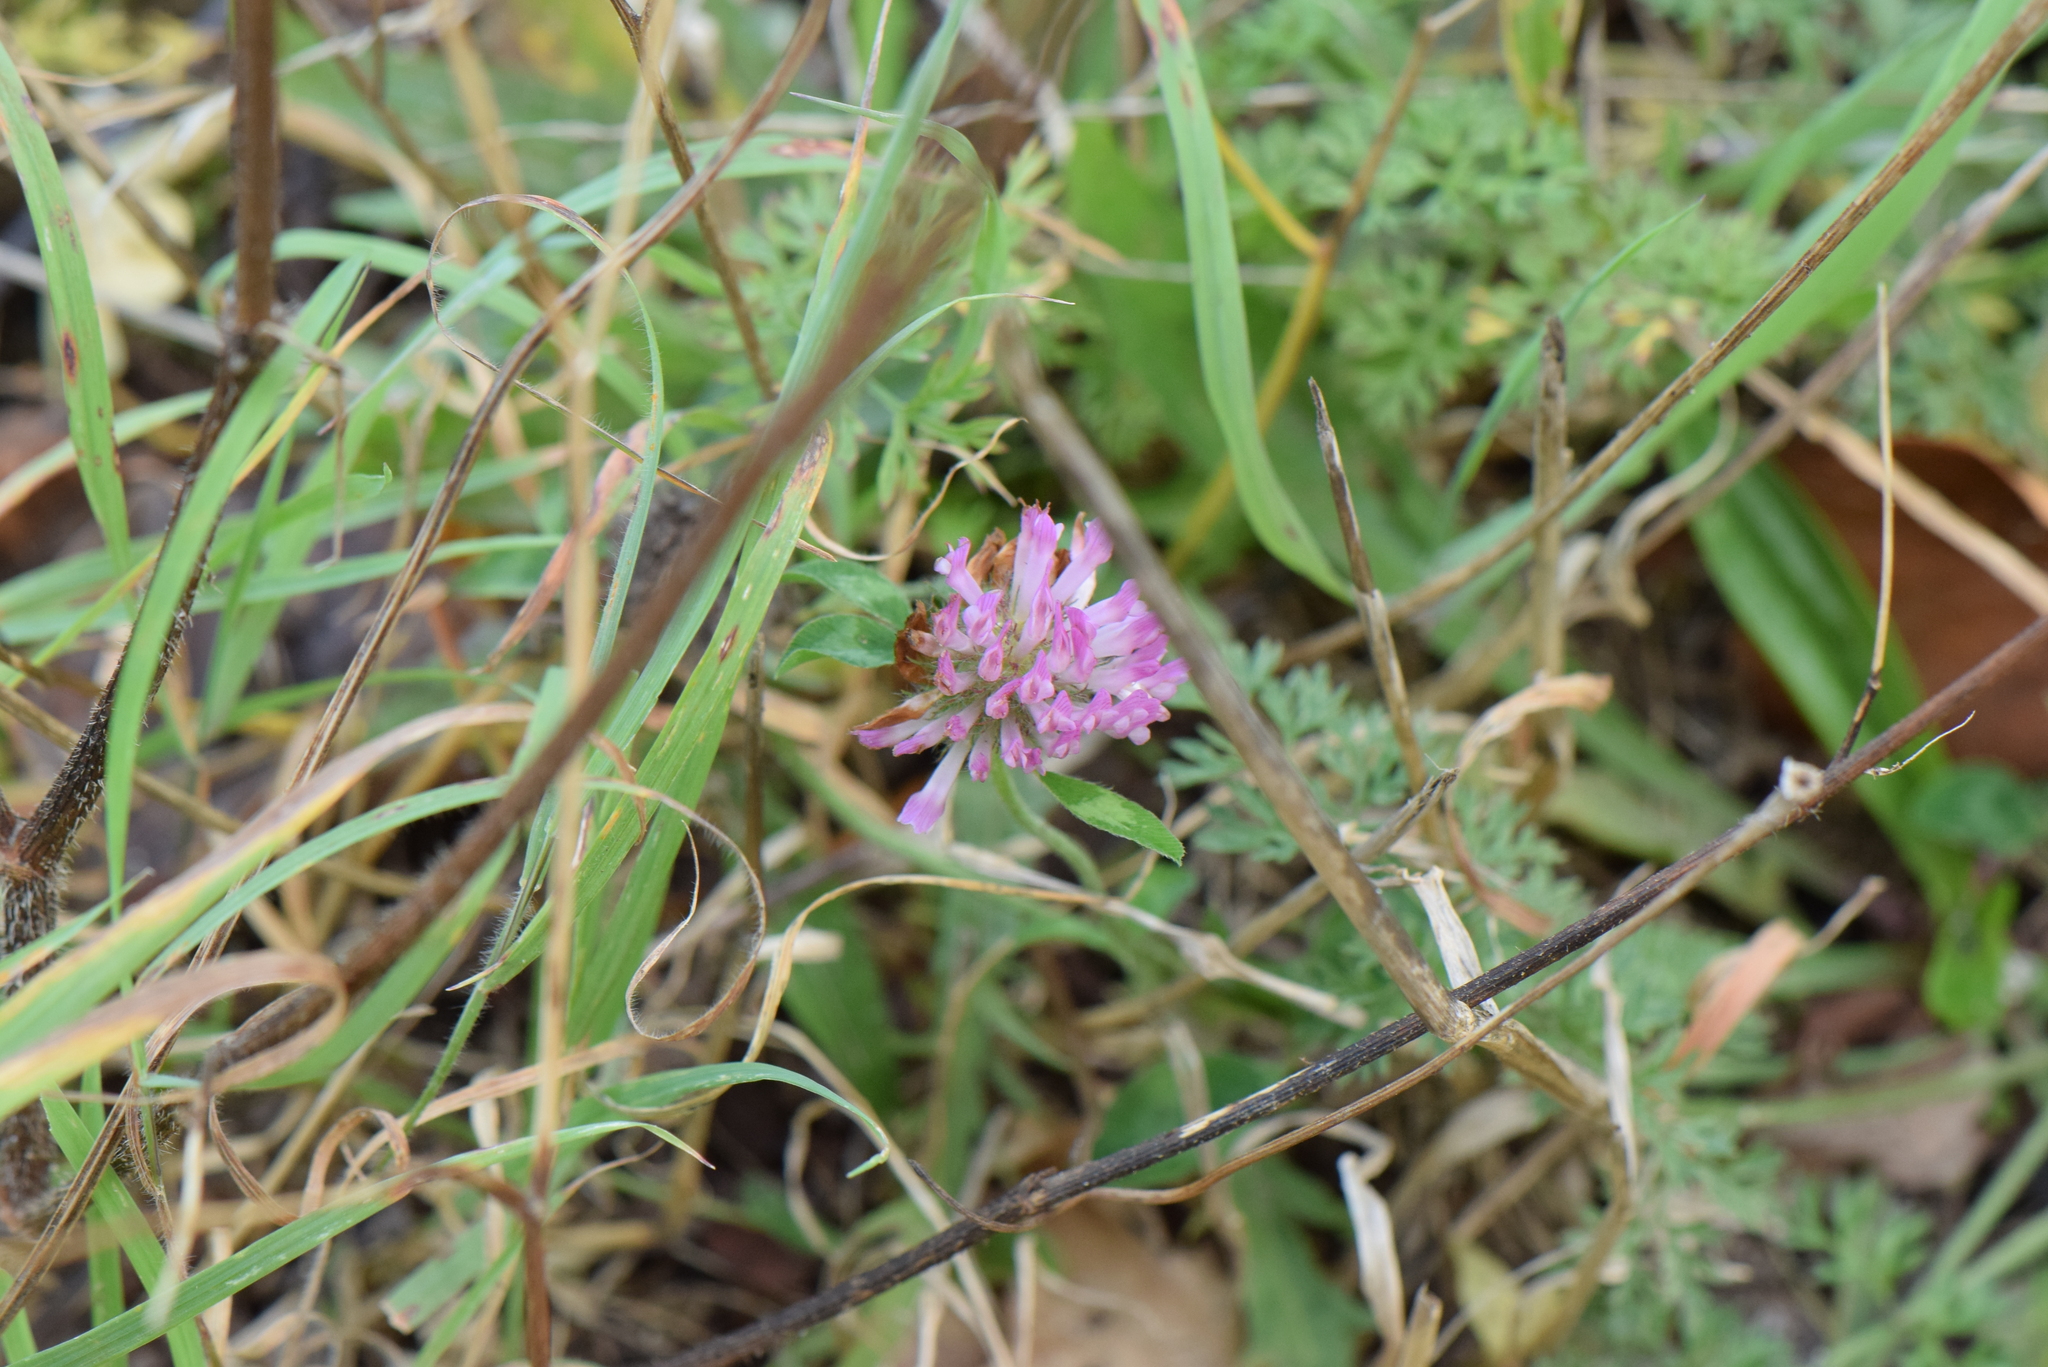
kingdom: Plantae
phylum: Tracheophyta
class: Magnoliopsida
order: Fabales
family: Fabaceae
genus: Trifolium
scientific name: Trifolium pratense
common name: Red clover
